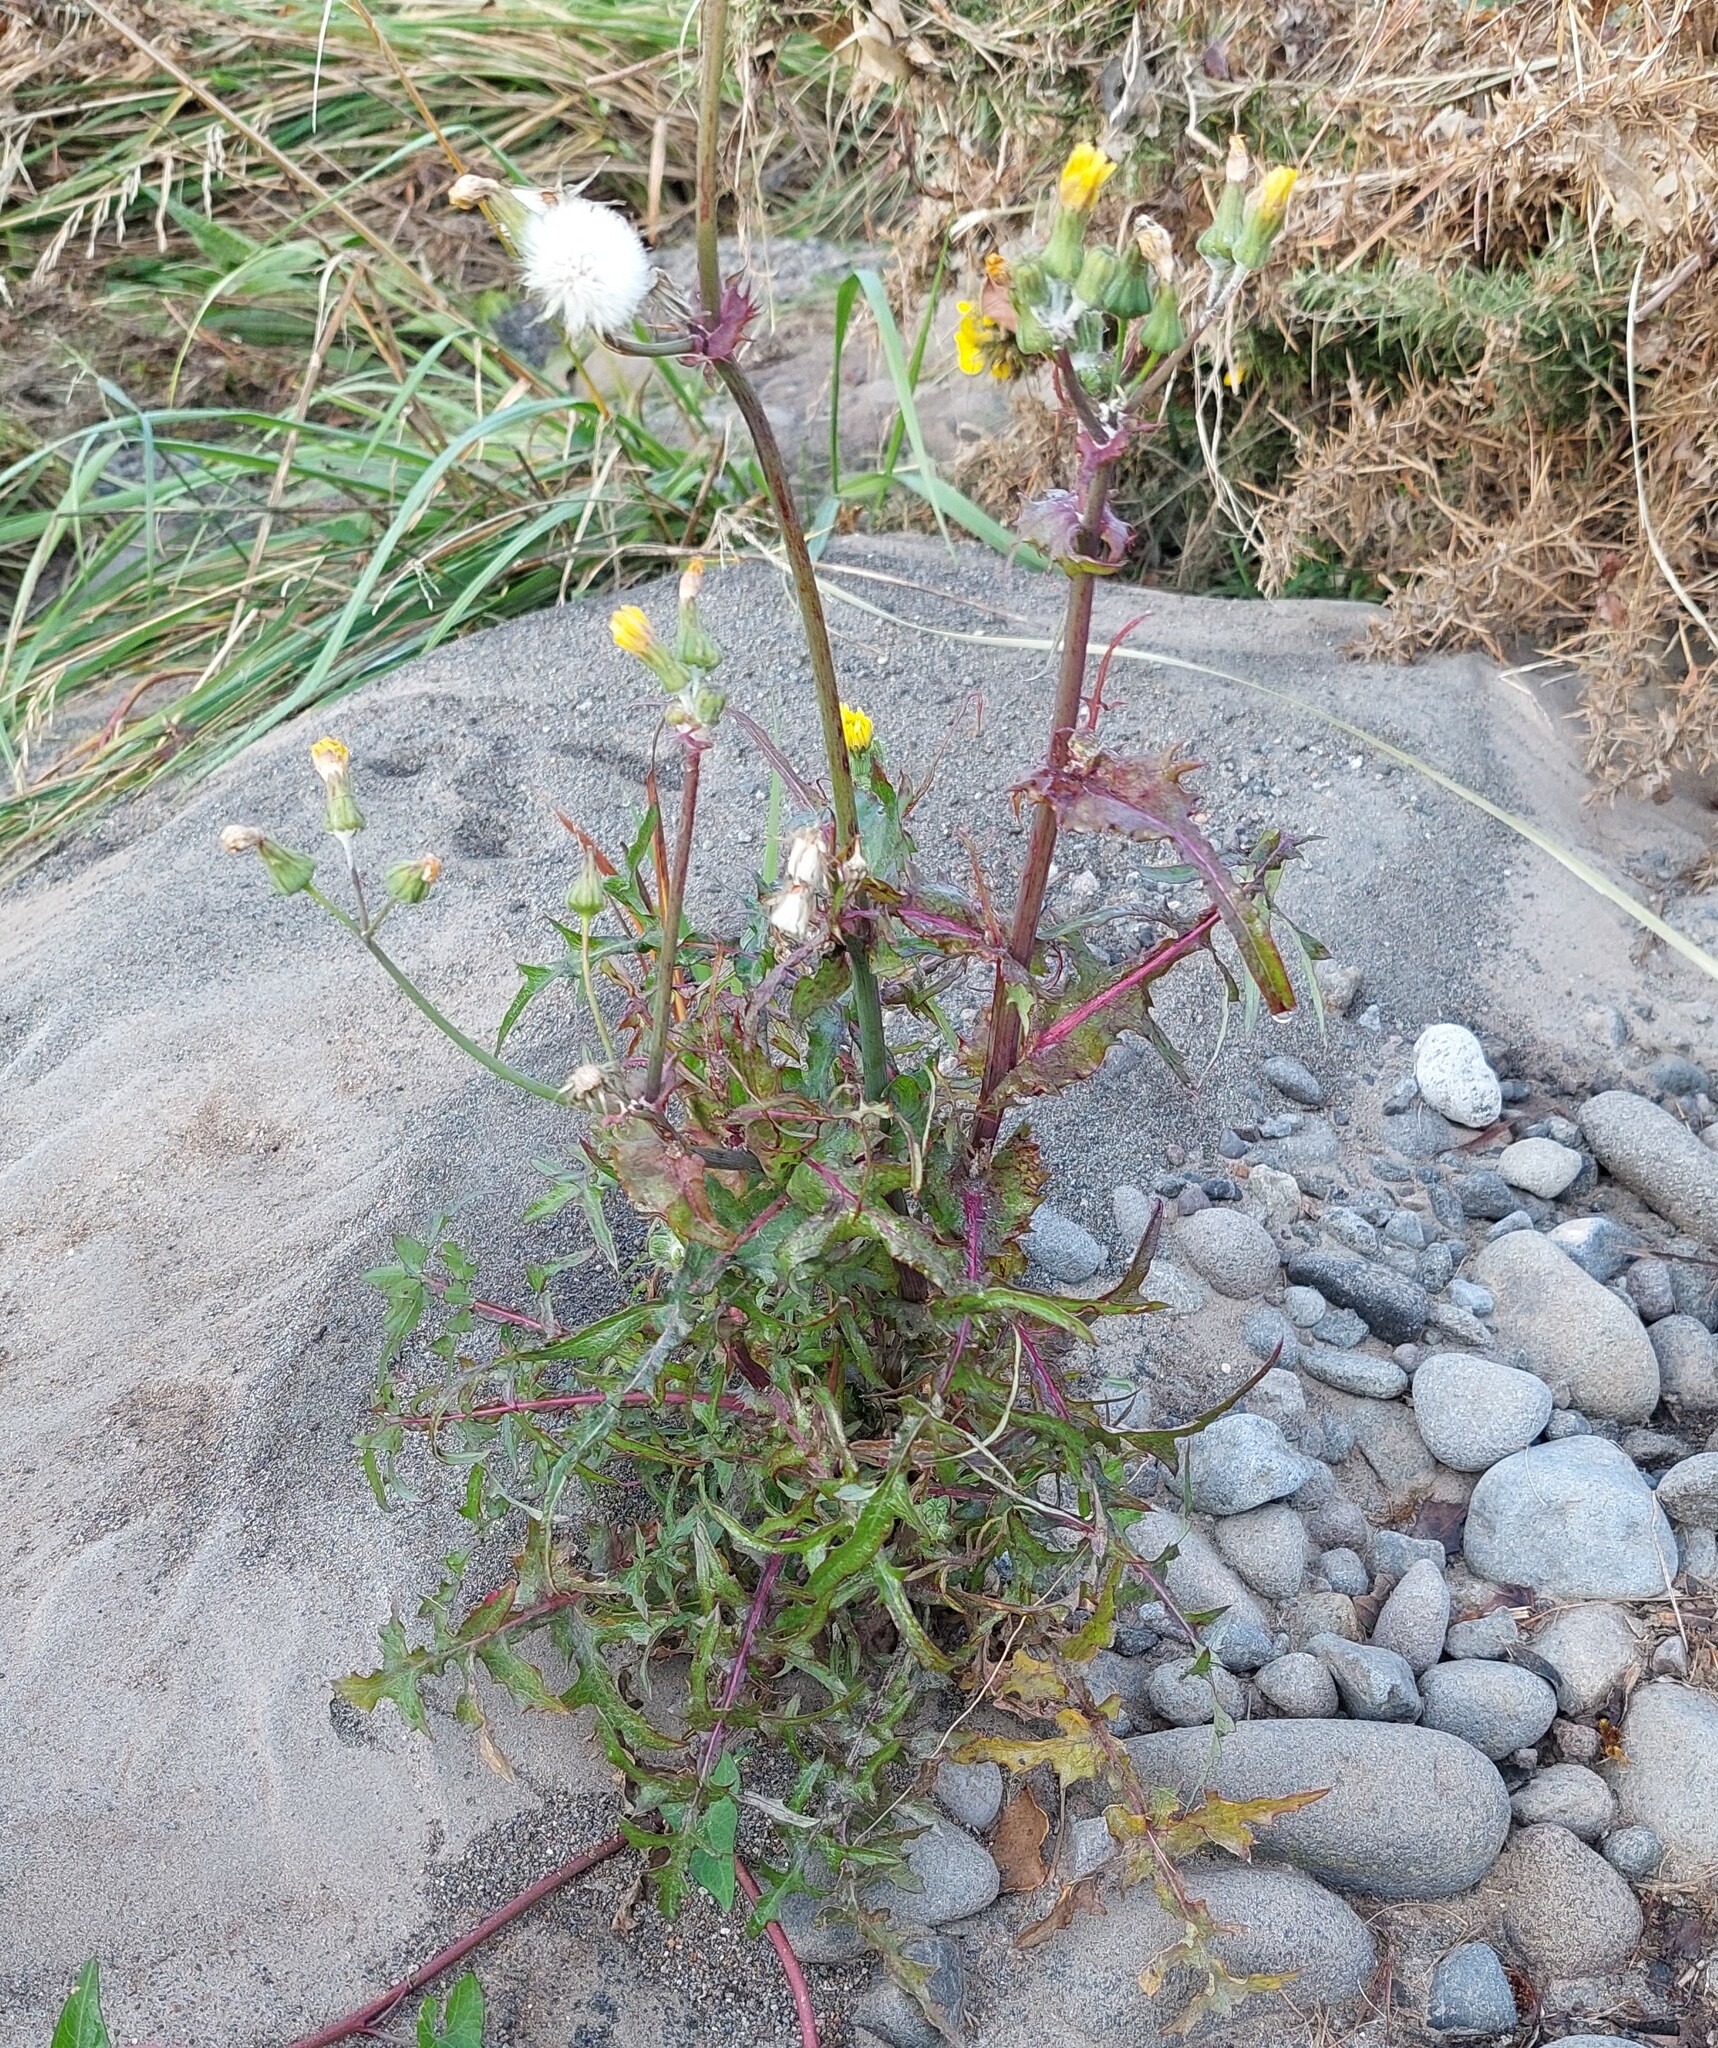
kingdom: Plantae
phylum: Tracheophyta
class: Magnoliopsida
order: Asterales
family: Asteraceae
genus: Sonchus
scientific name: Sonchus oleraceus
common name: Common sowthistle
